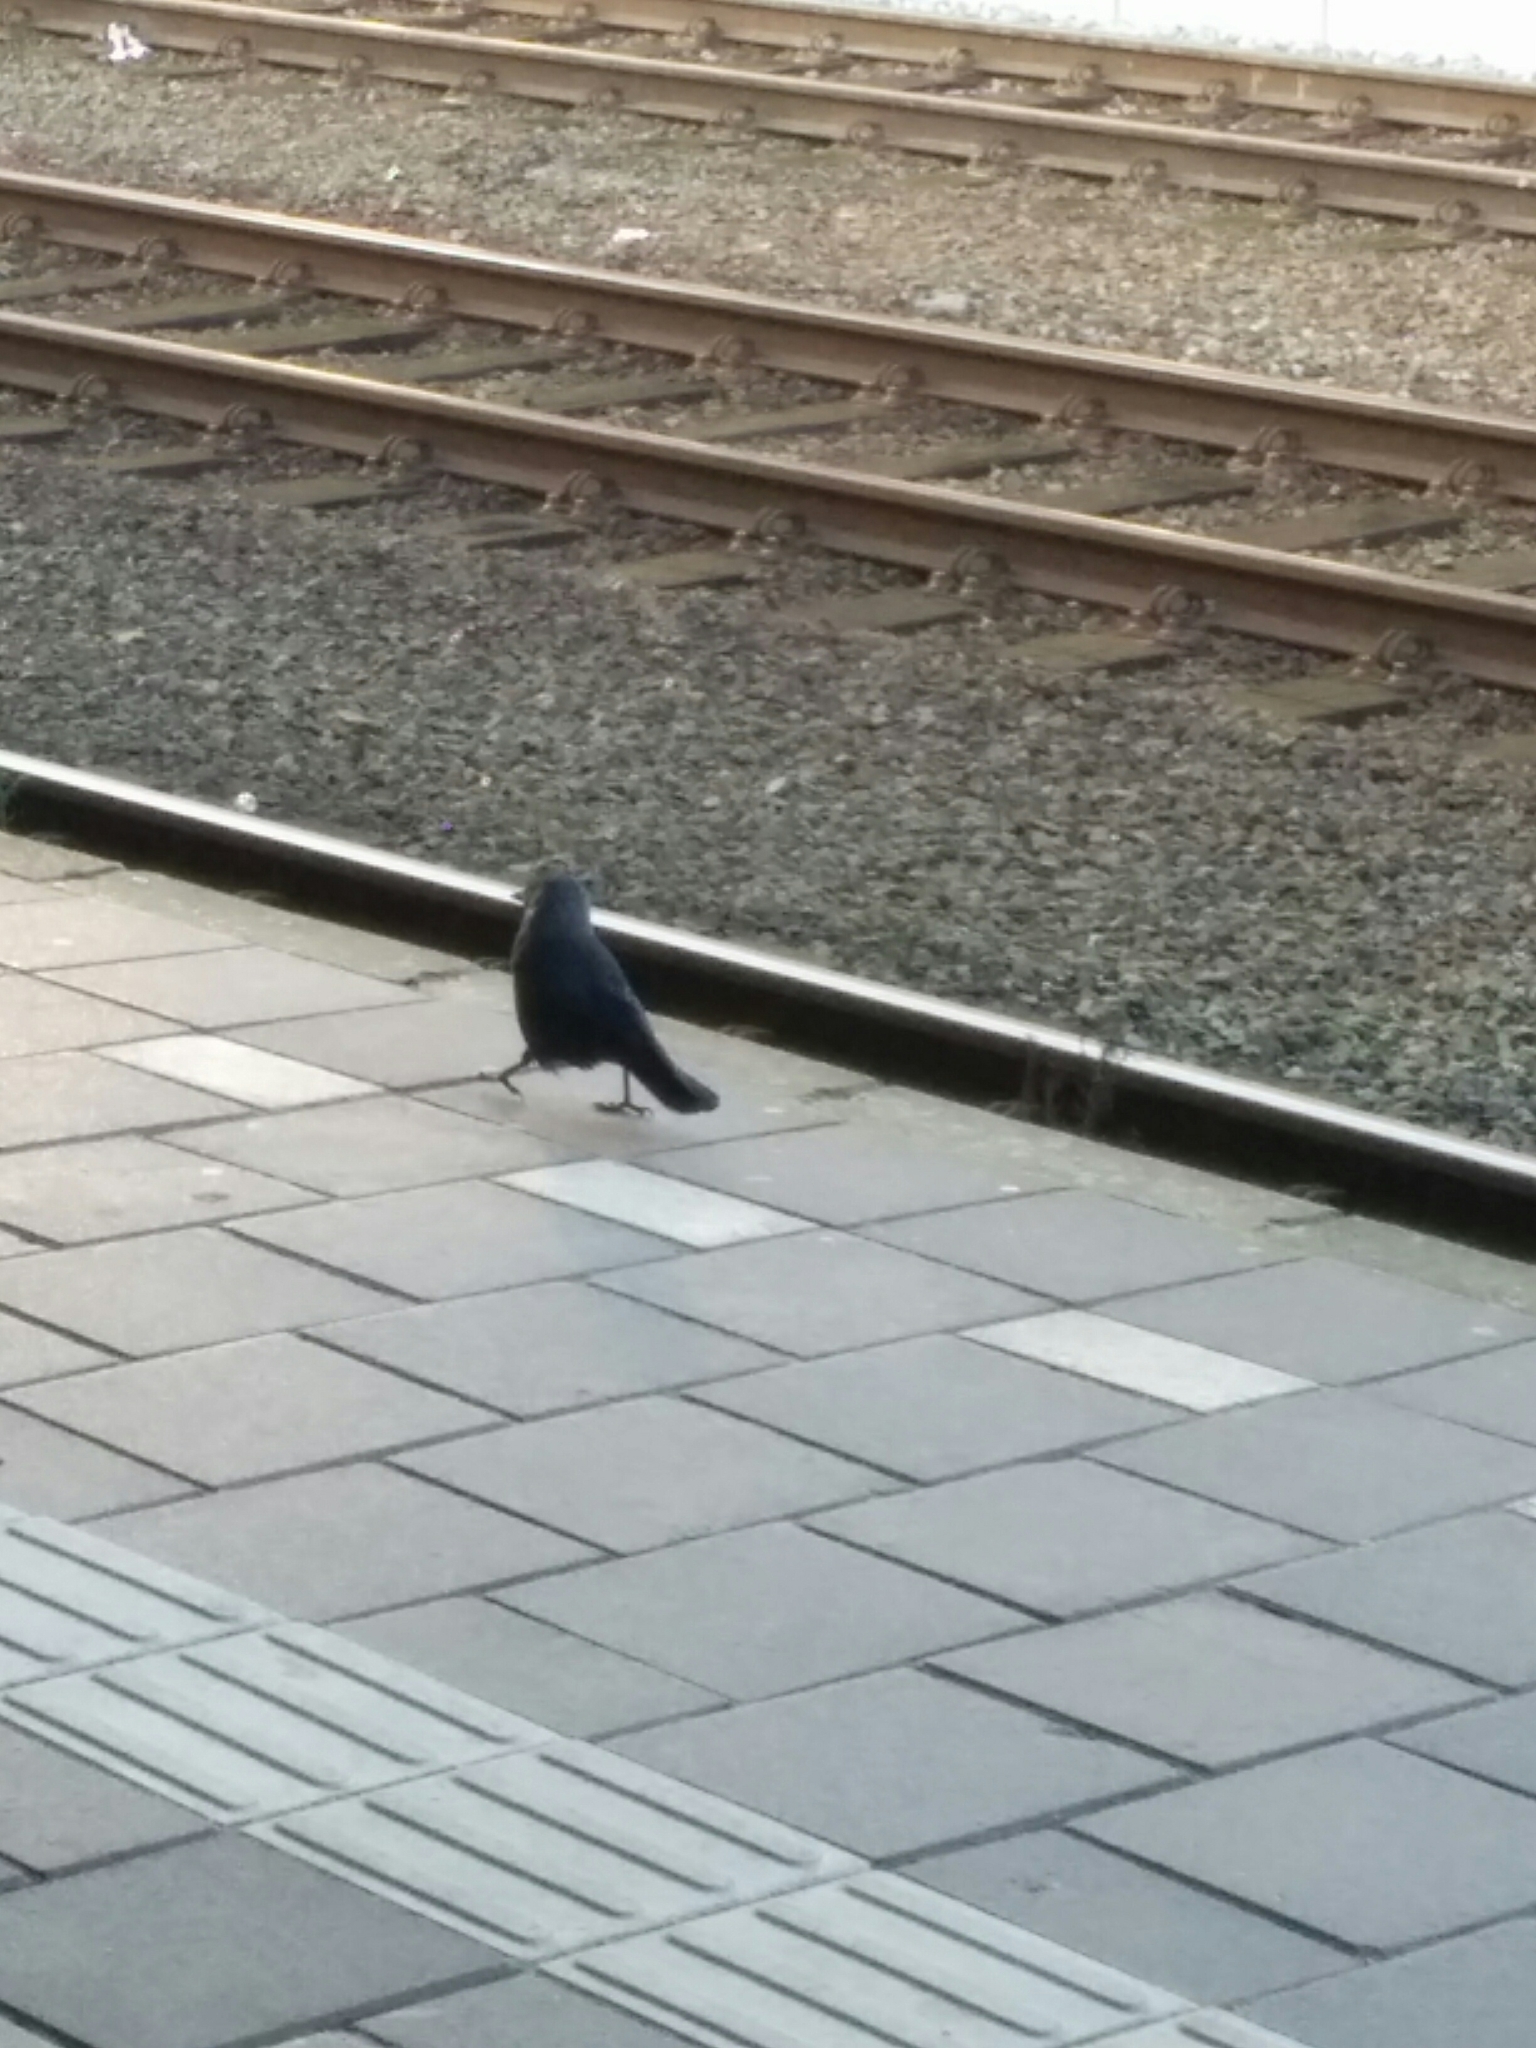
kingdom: Animalia
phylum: Chordata
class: Aves
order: Passeriformes
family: Corvidae
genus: Coloeus
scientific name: Coloeus monedula
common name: Western jackdaw
